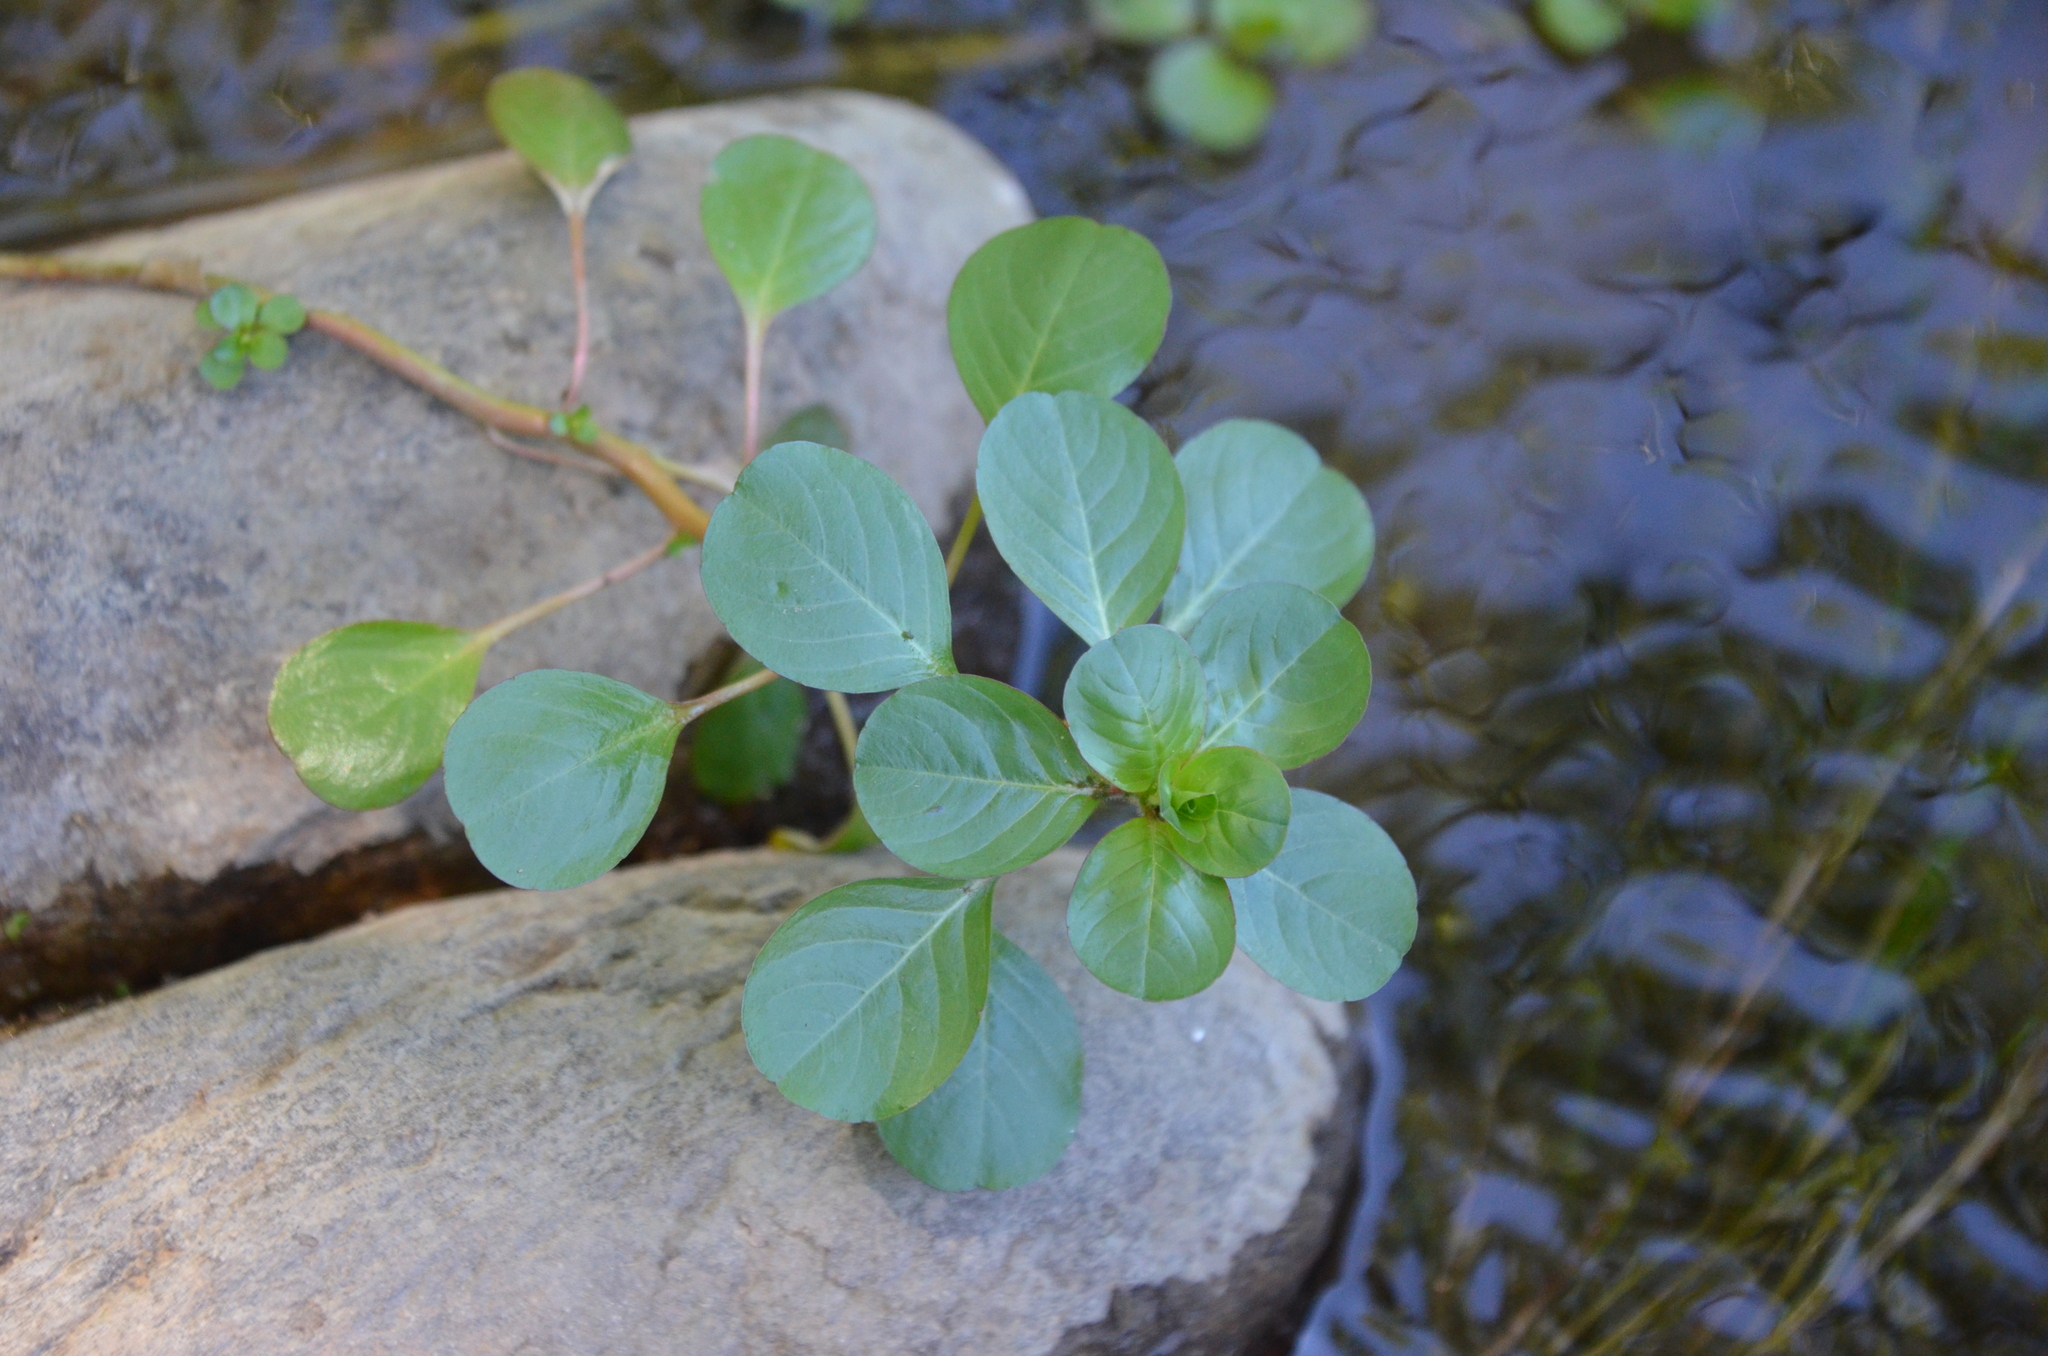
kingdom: Plantae
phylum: Tracheophyta
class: Magnoliopsida
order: Myrtales
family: Onagraceae
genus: Ludwigia
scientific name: Ludwigia peploides
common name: Floating primrose-willow
